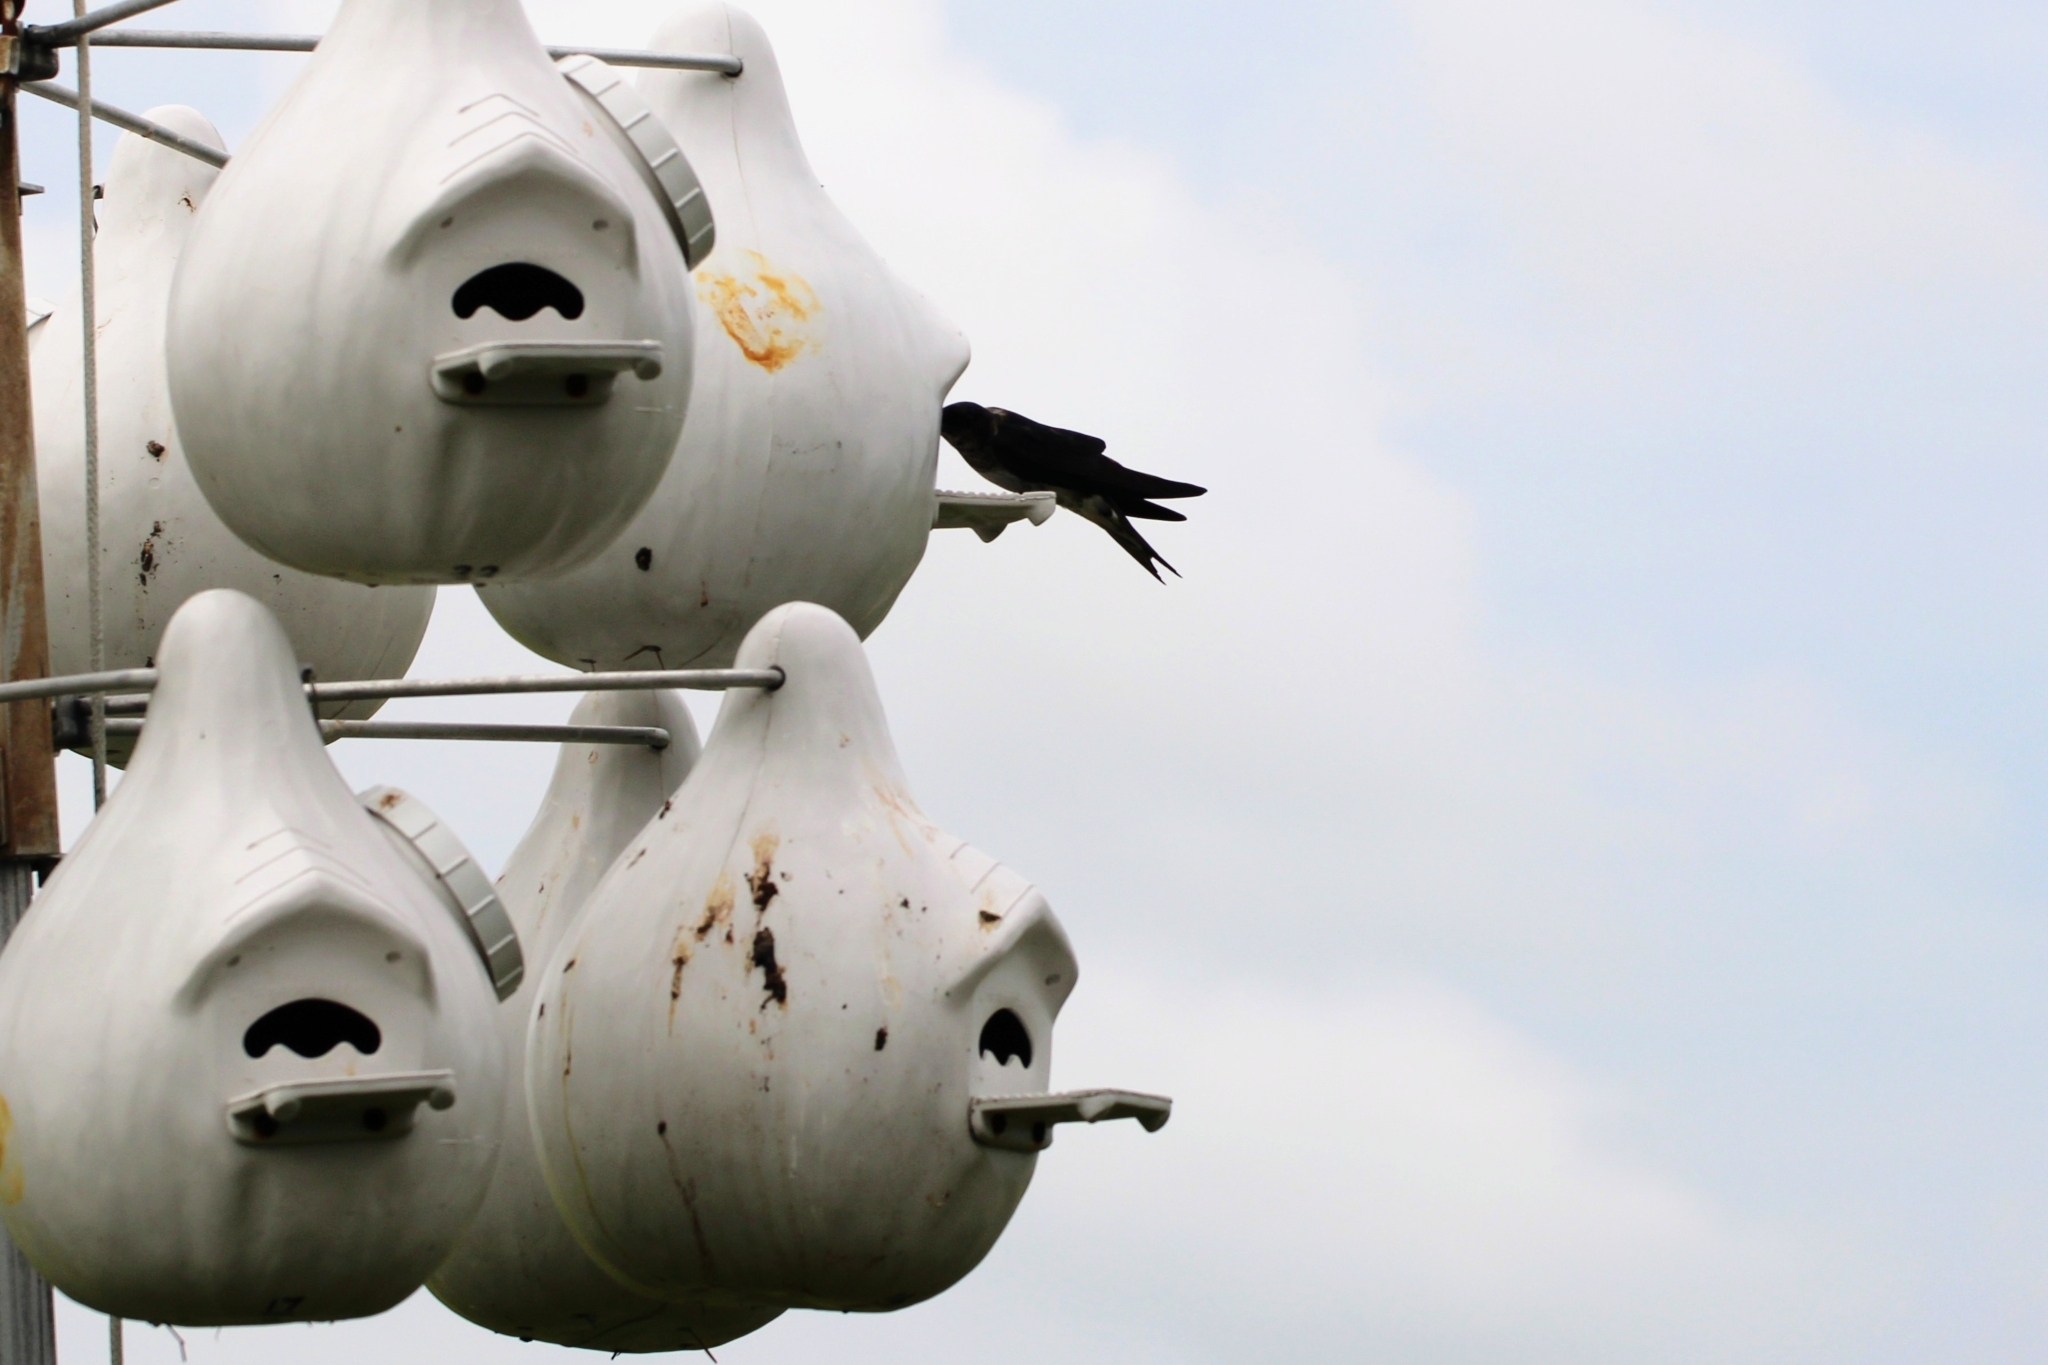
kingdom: Animalia
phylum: Chordata
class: Aves
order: Passeriformes
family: Hirundinidae
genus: Progne
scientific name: Progne subis
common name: Purple martin
